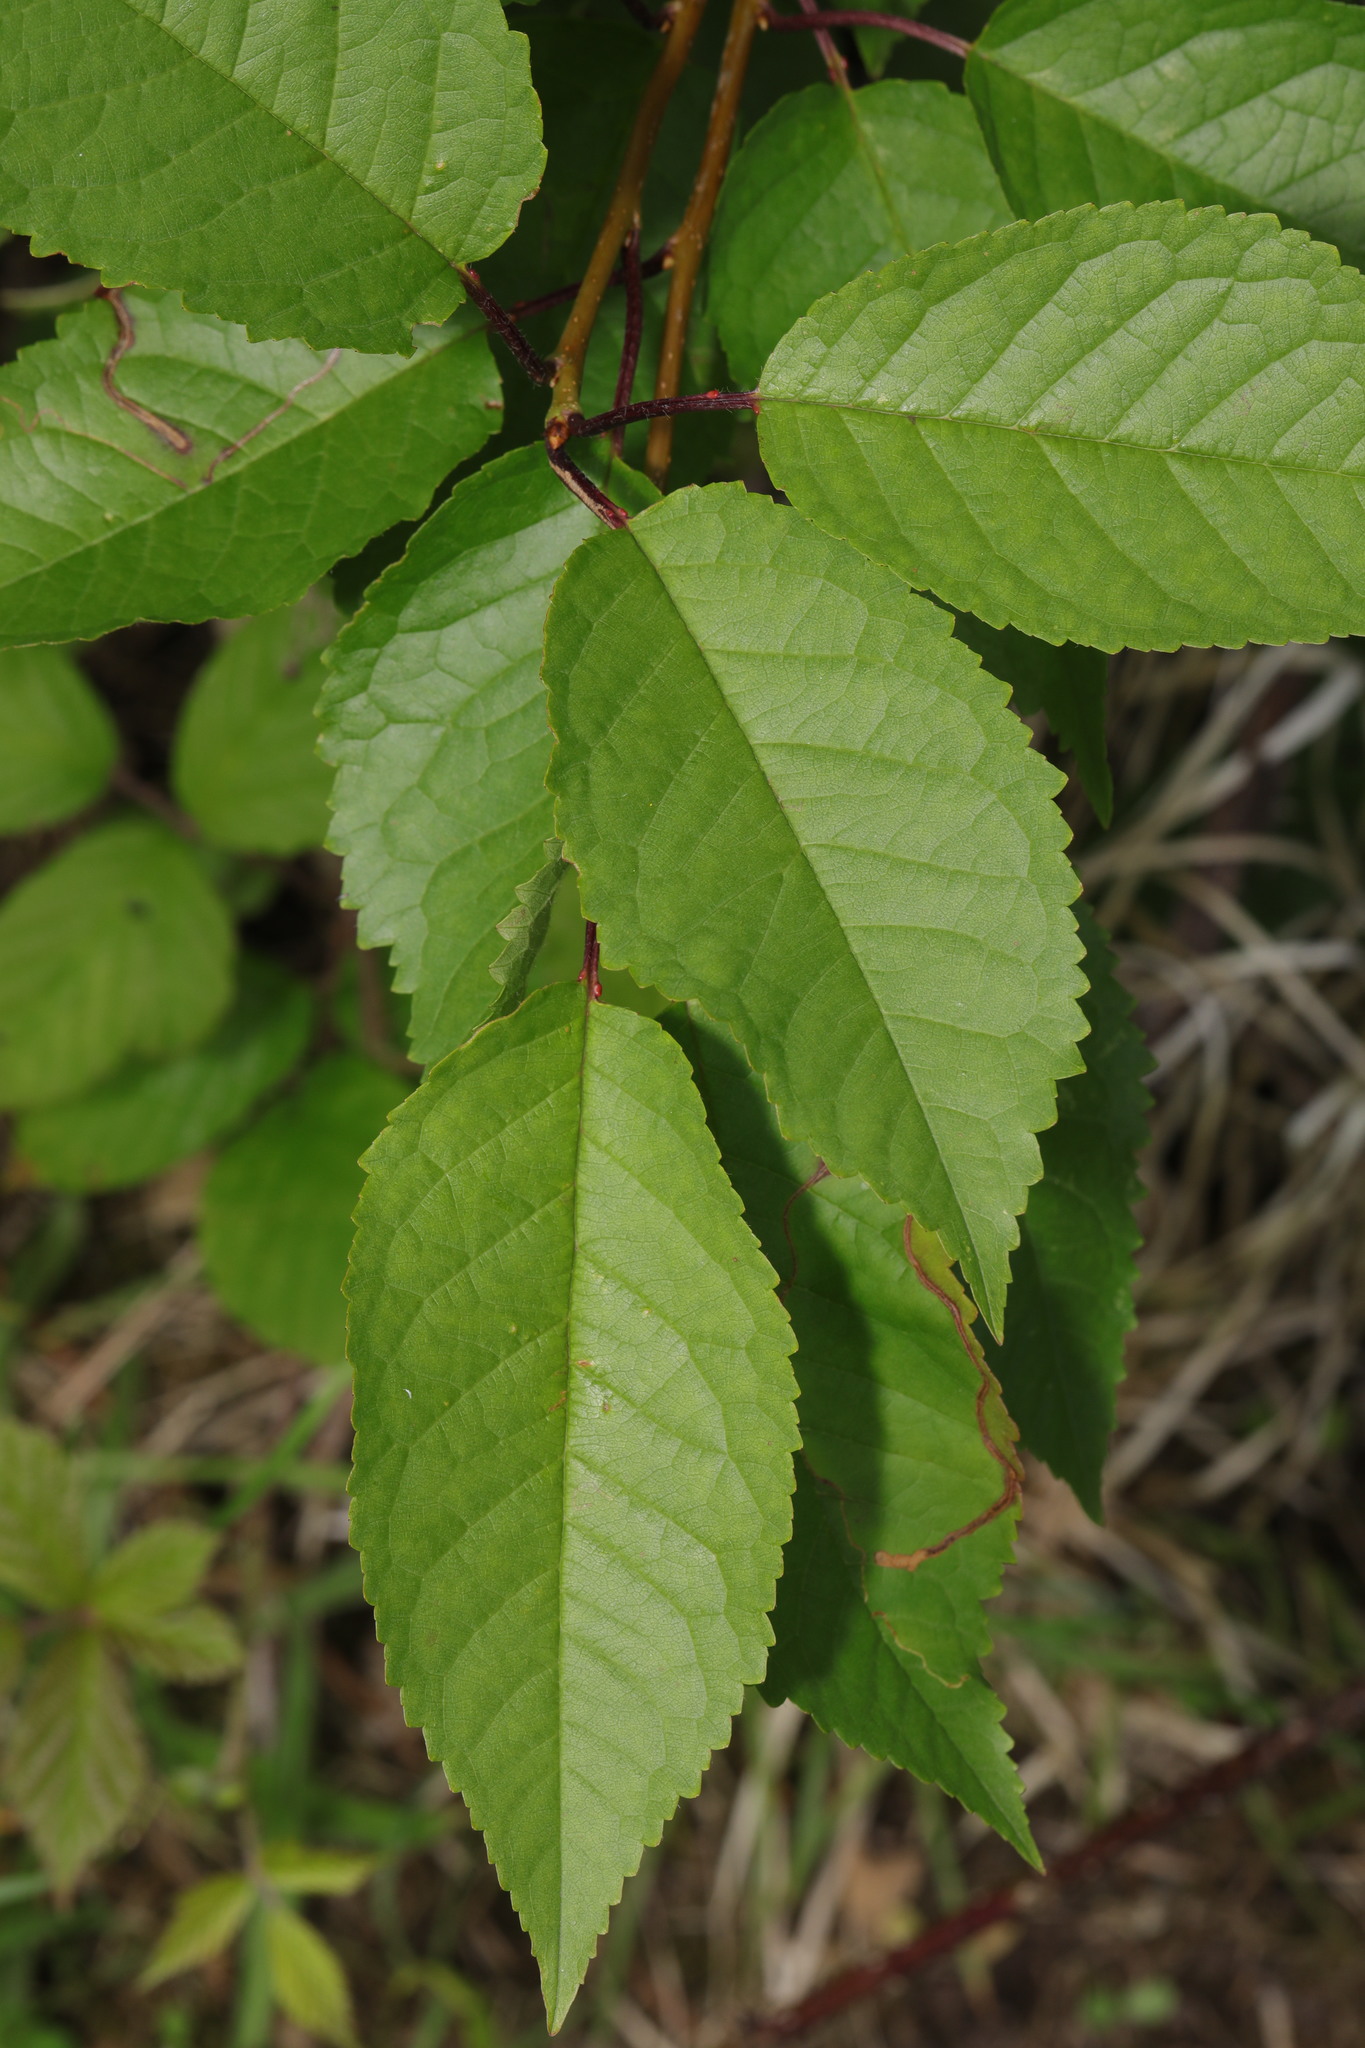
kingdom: Plantae
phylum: Tracheophyta
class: Magnoliopsida
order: Rosales
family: Rosaceae
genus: Prunus
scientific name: Prunus avium
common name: Sweet cherry
